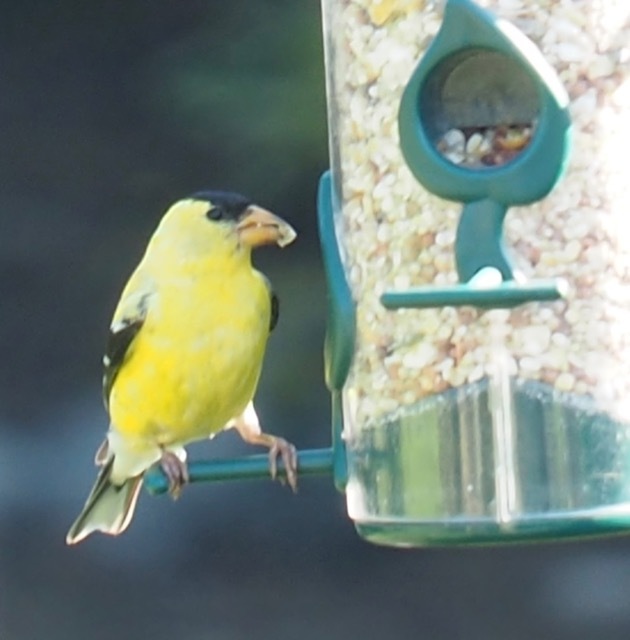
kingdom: Animalia
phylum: Chordata
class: Aves
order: Passeriformes
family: Fringillidae
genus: Spinus
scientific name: Spinus tristis
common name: American goldfinch
